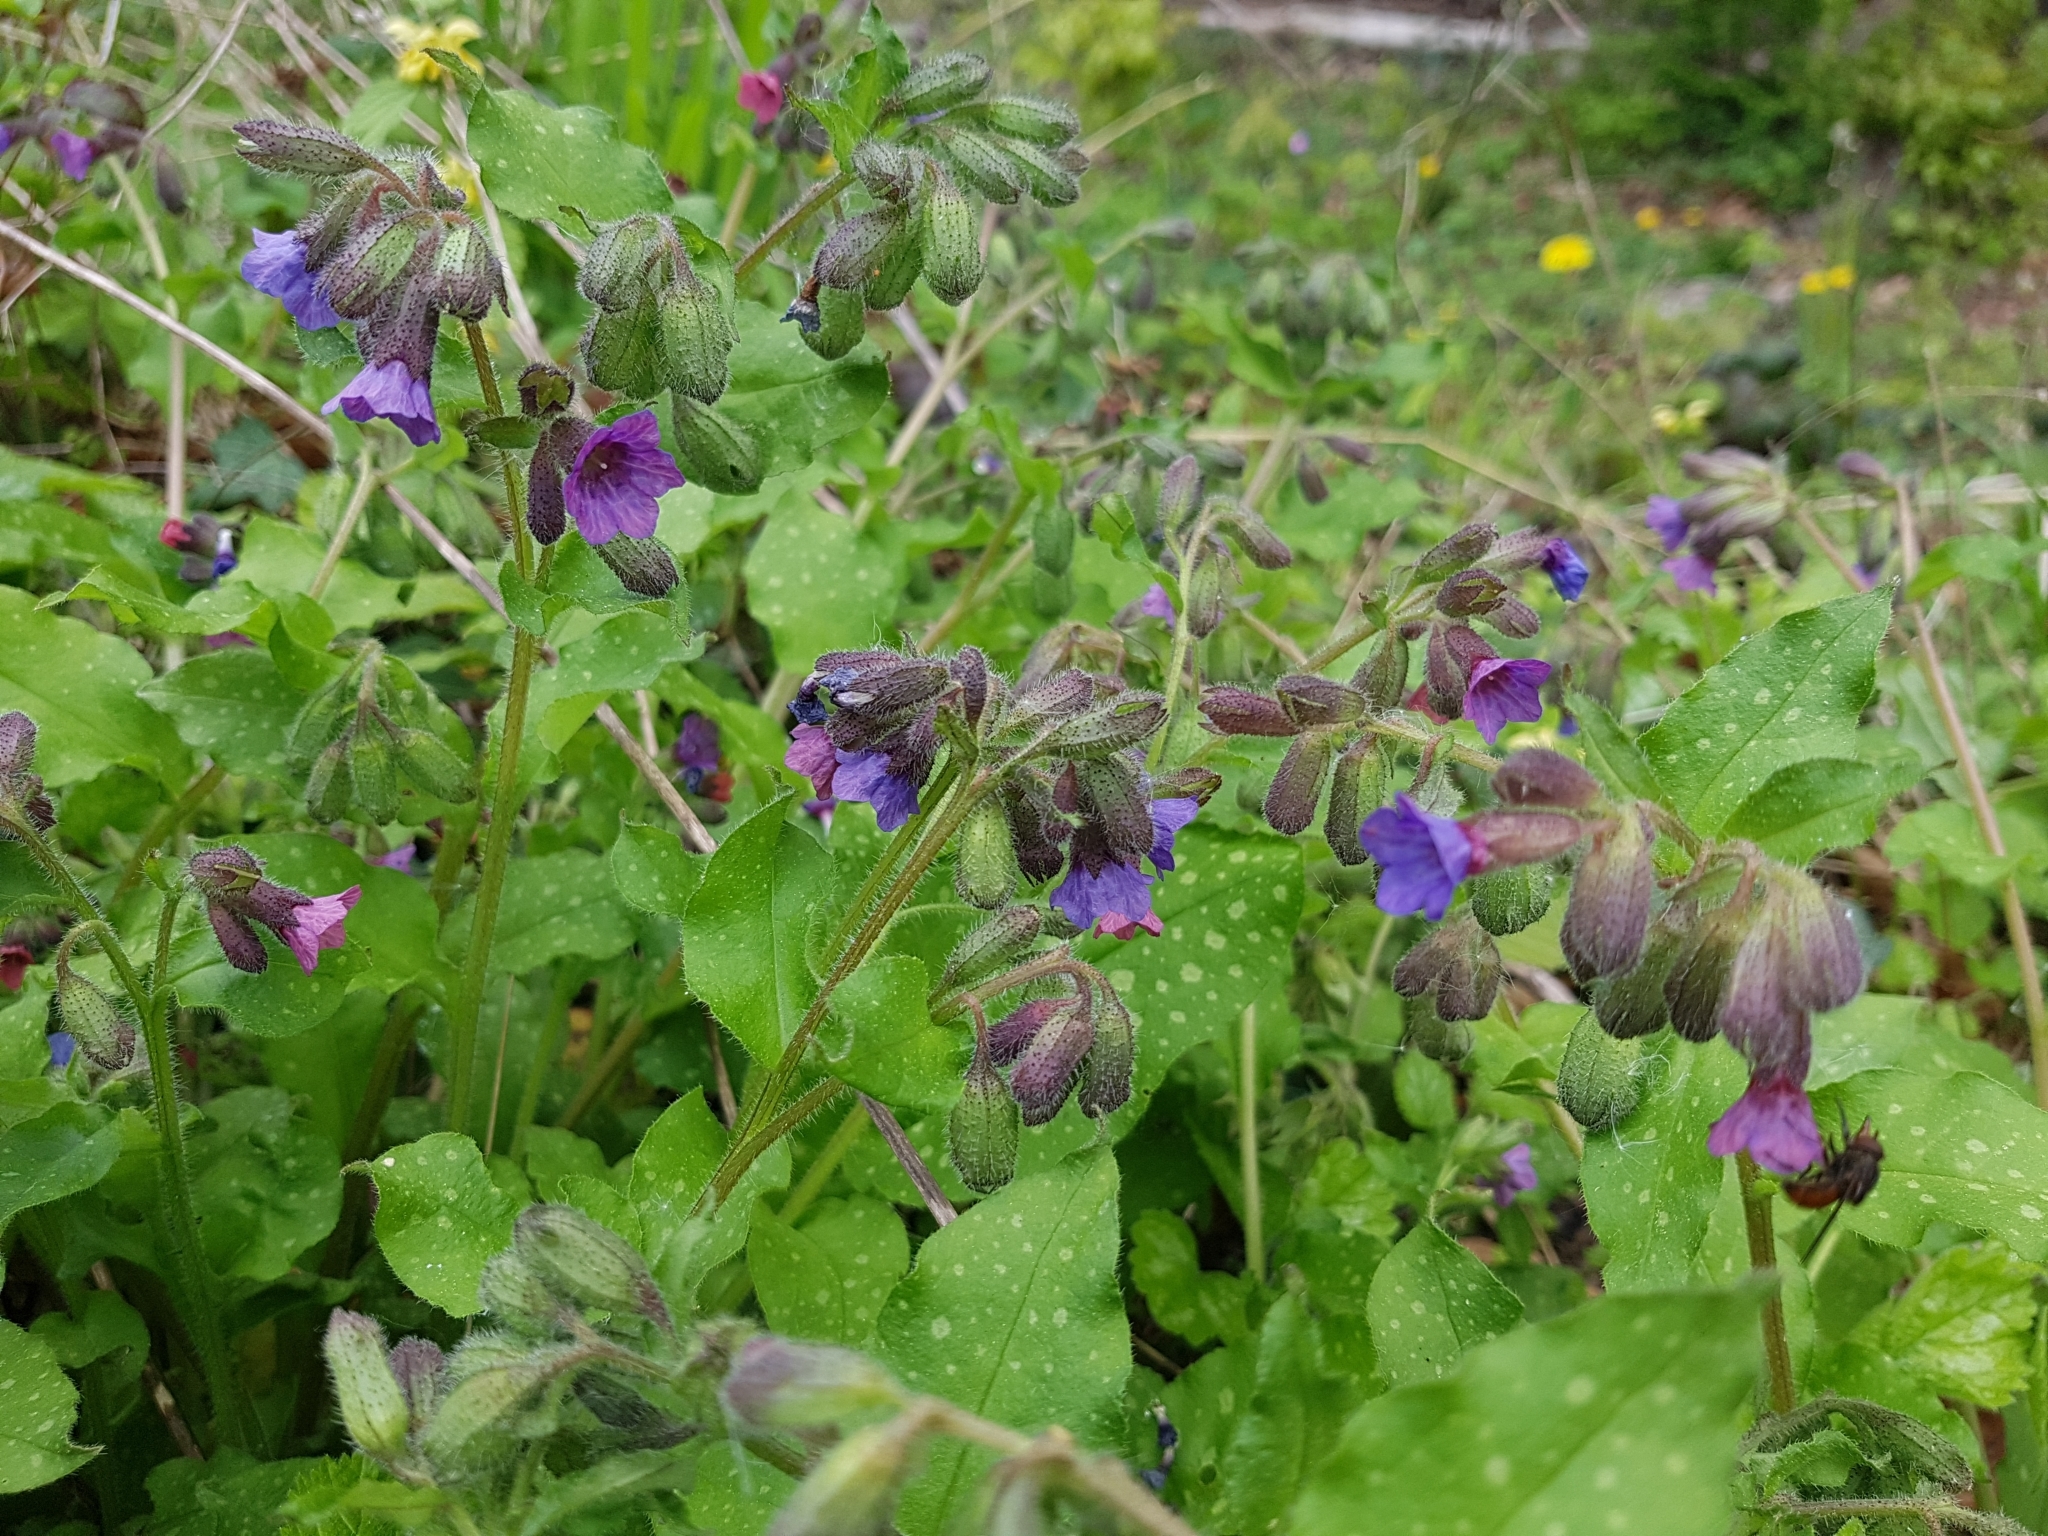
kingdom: Plantae
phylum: Tracheophyta
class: Magnoliopsida
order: Boraginales
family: Boraginaceae
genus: Pulmonaria
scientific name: Pulmonaria officinalis
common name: Lungwort
